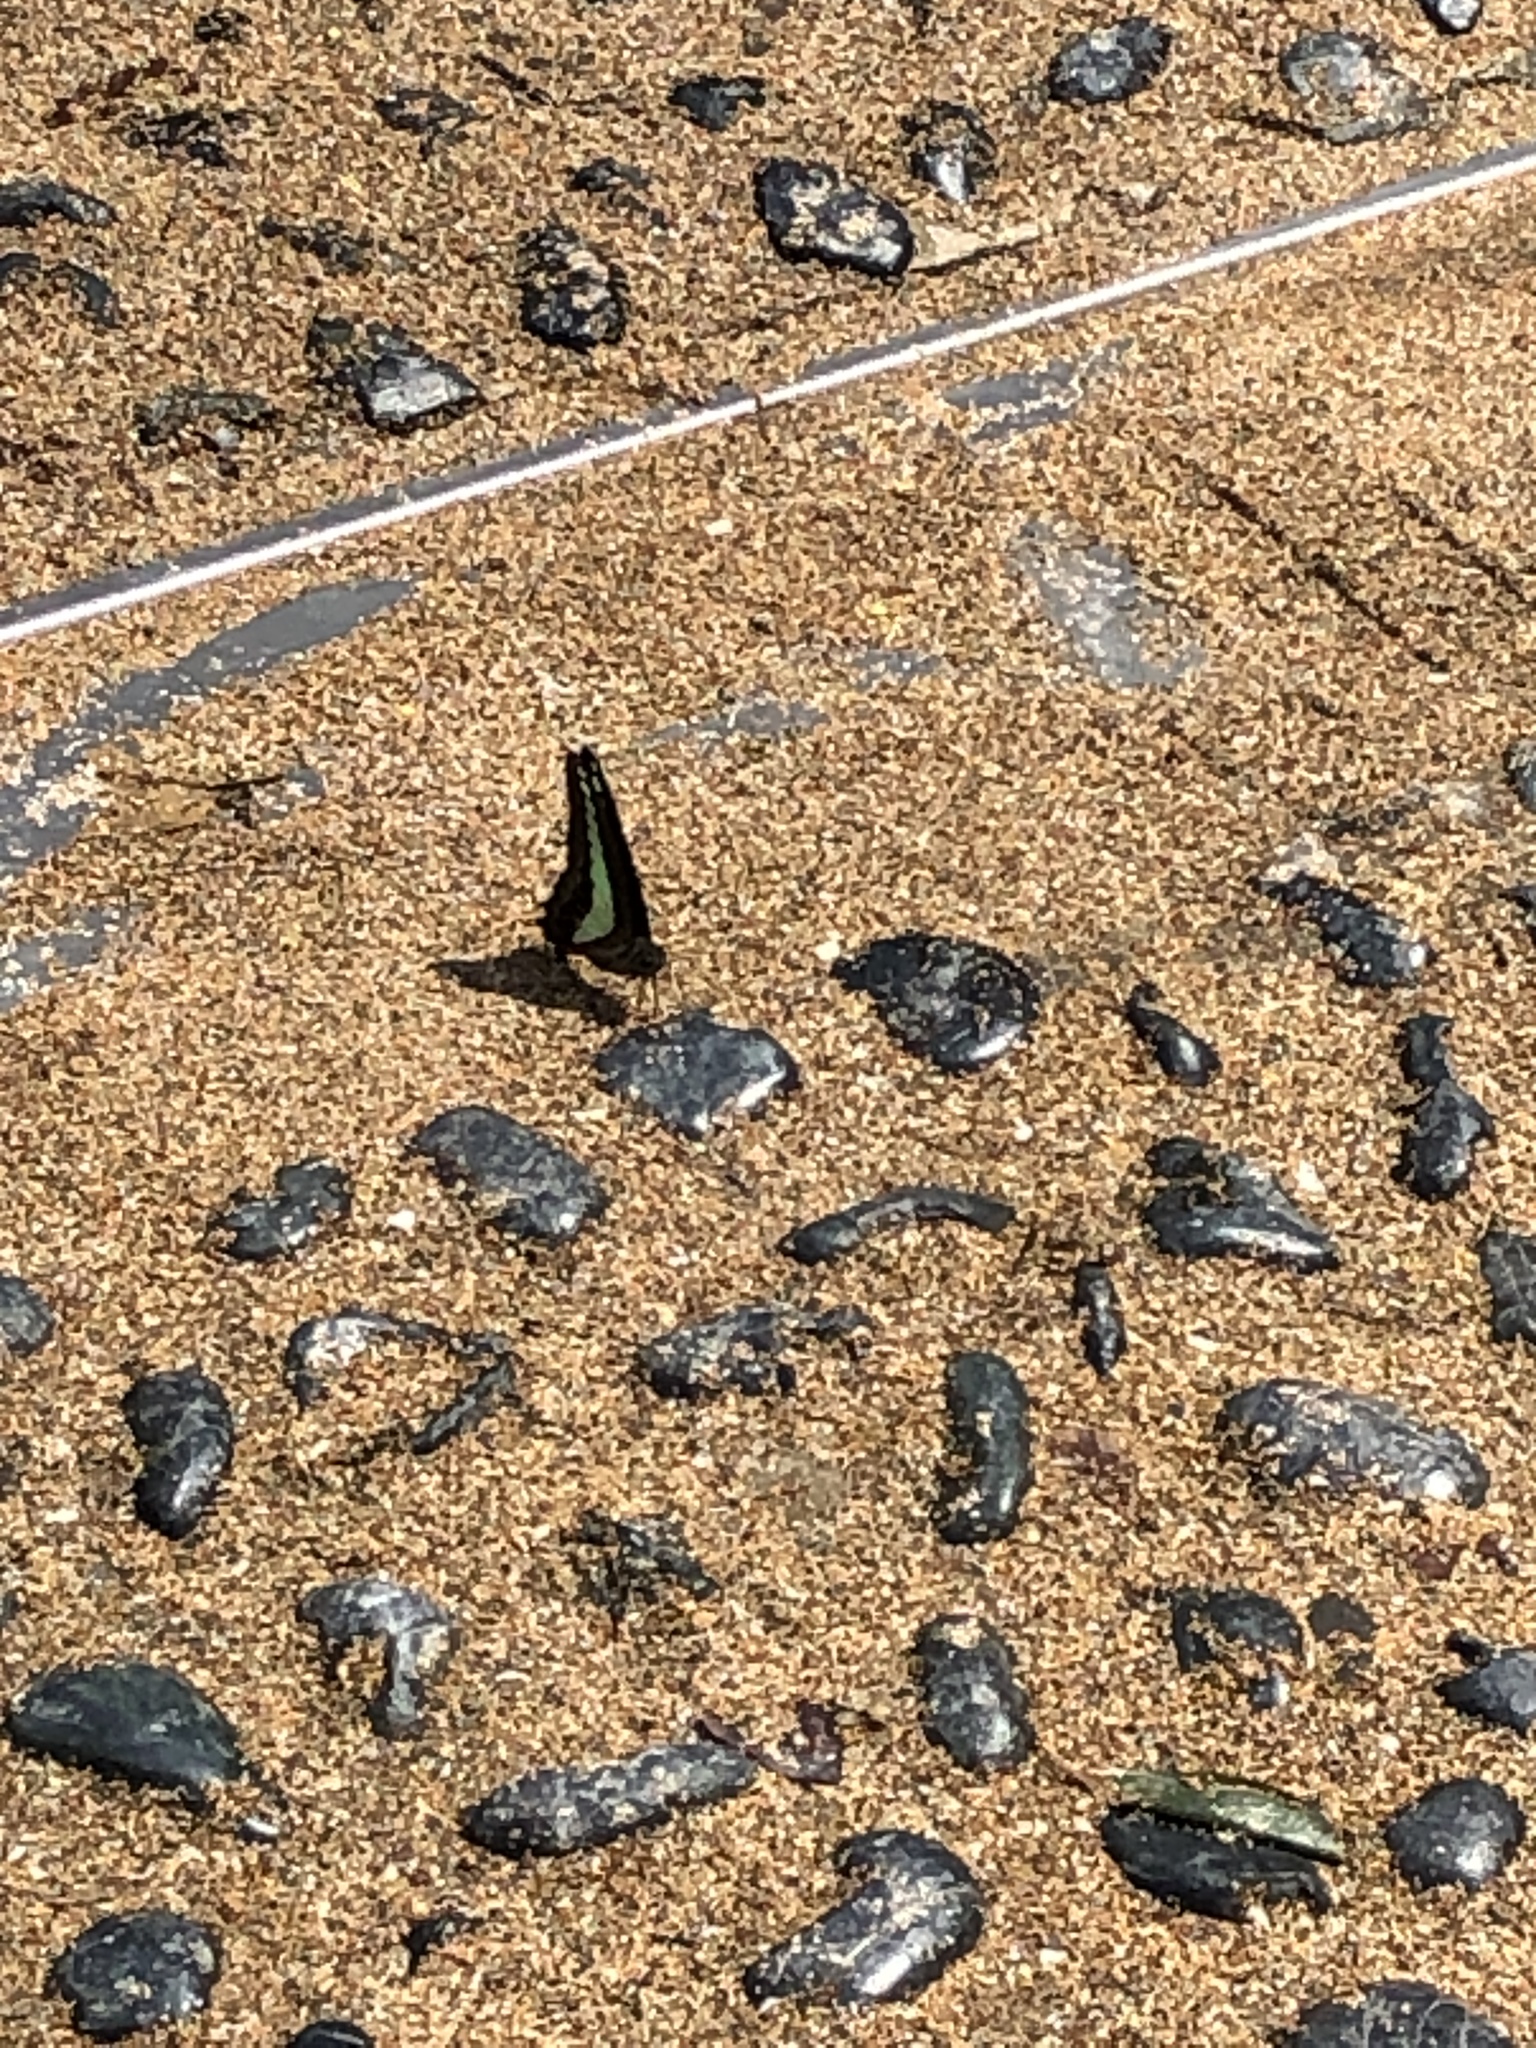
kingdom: Fungi
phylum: Ascomycota
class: Sordariomycetes
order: Microascales
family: Microascaceae
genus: Graphium
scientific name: Graphium sarpedon
